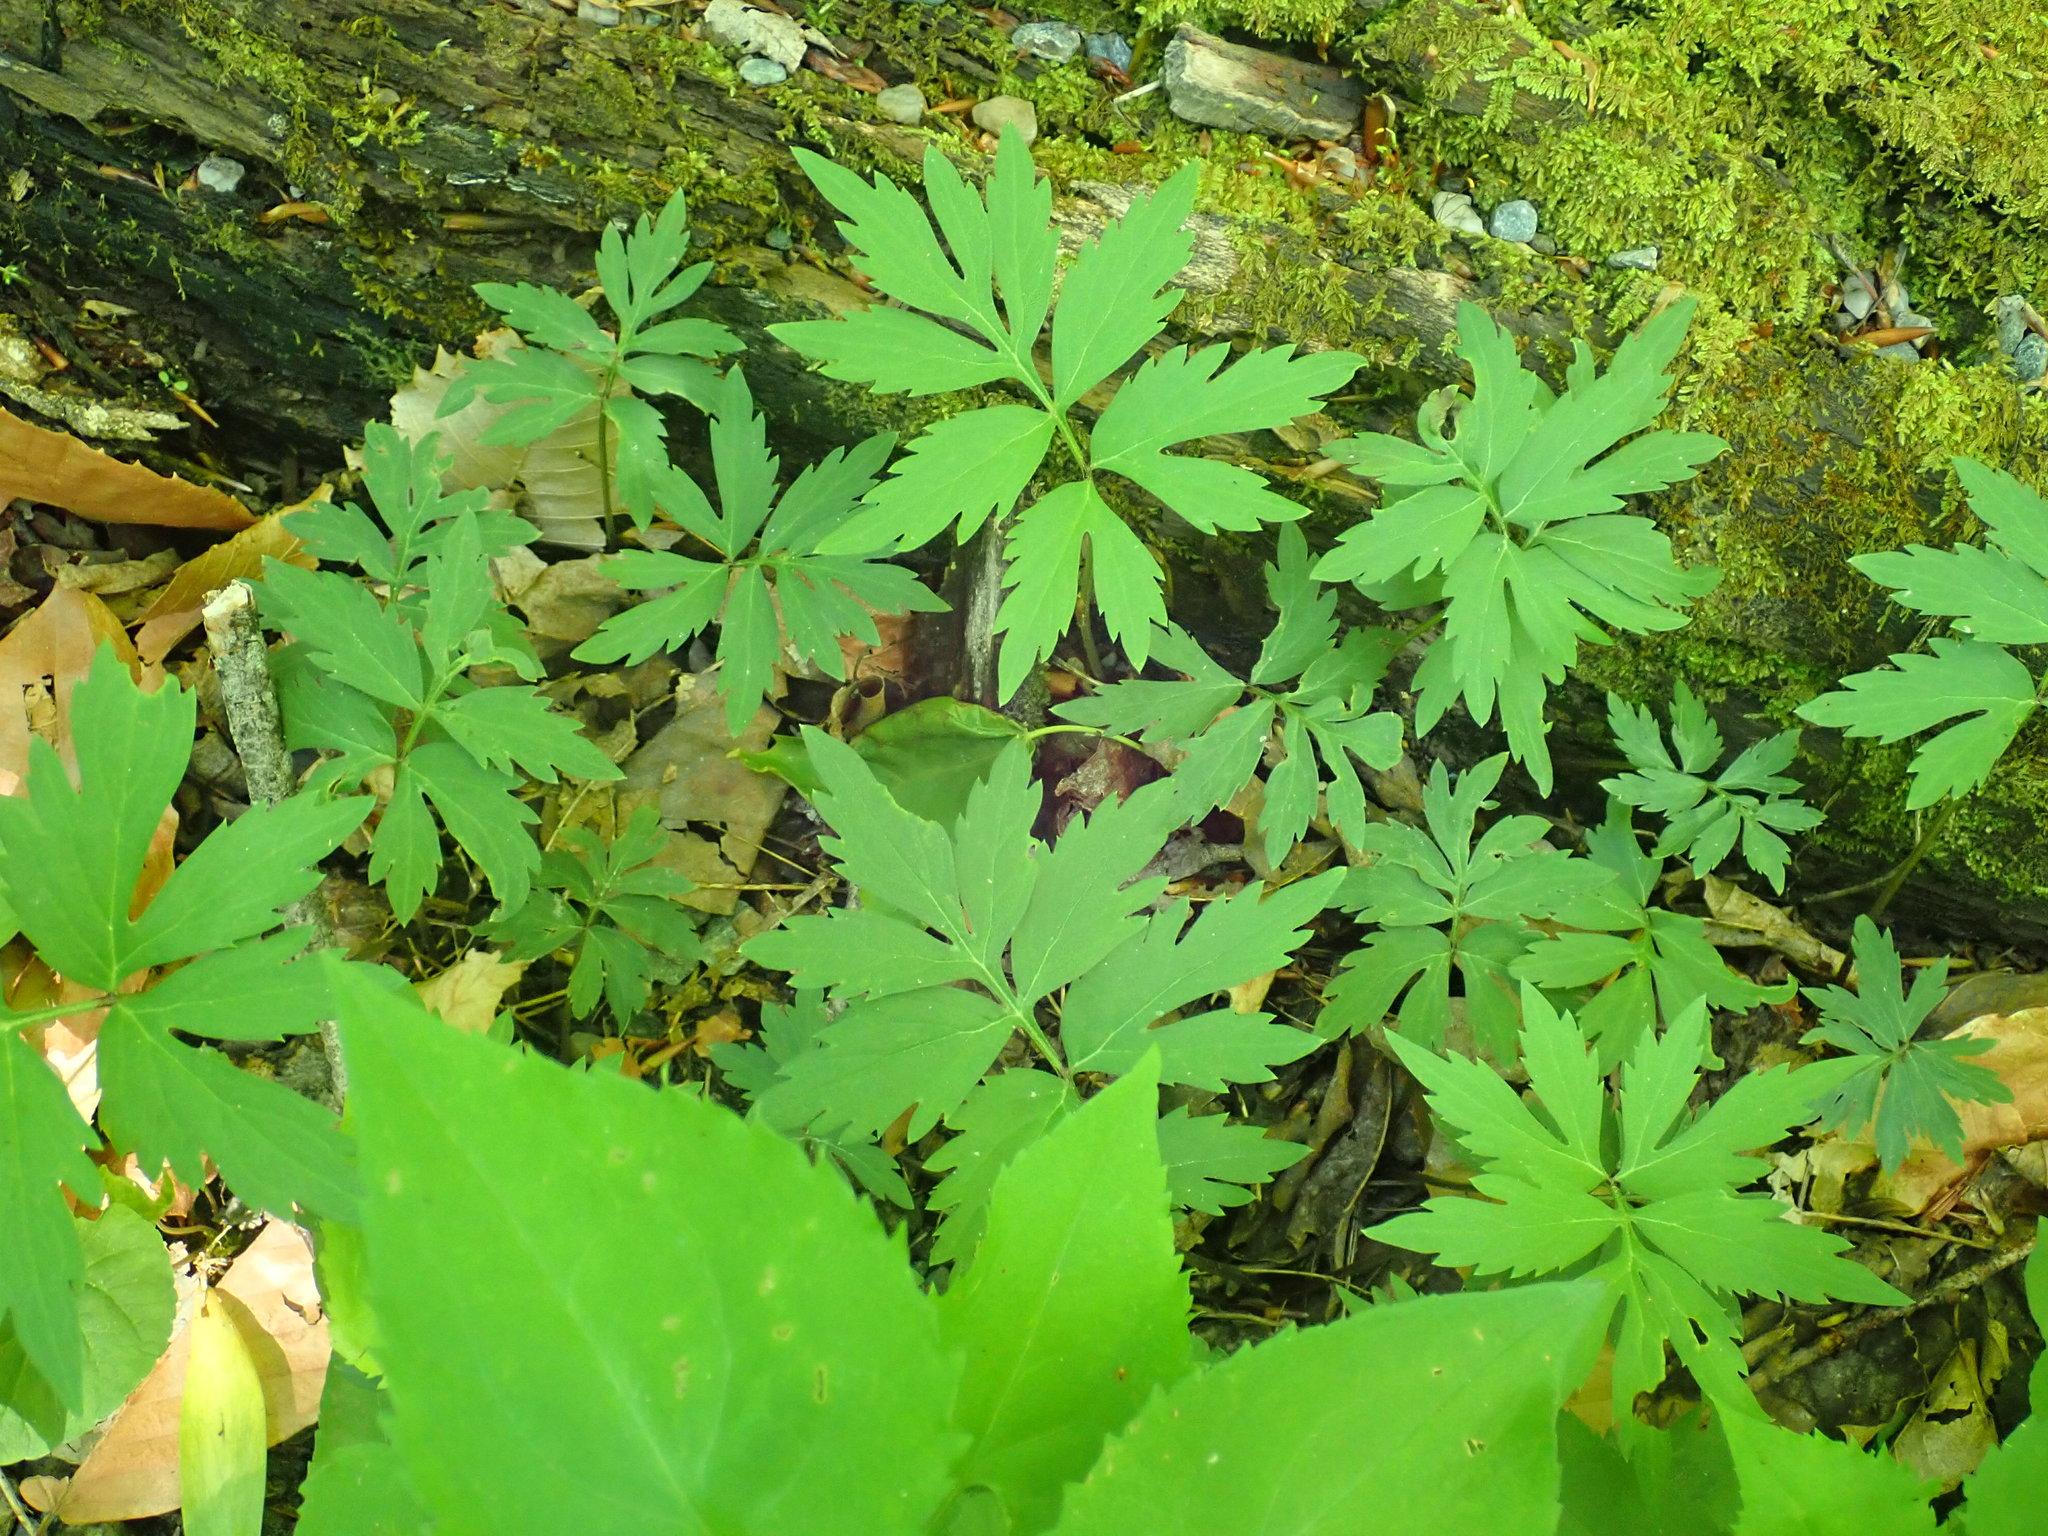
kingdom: Plantae
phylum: Tracheophyta
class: Magnoliopsida
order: Boraginales
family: Hydrophyllaceae
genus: Hydrophyllum
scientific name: Hydrophyllum virginianum
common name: Virginia waterleaf
